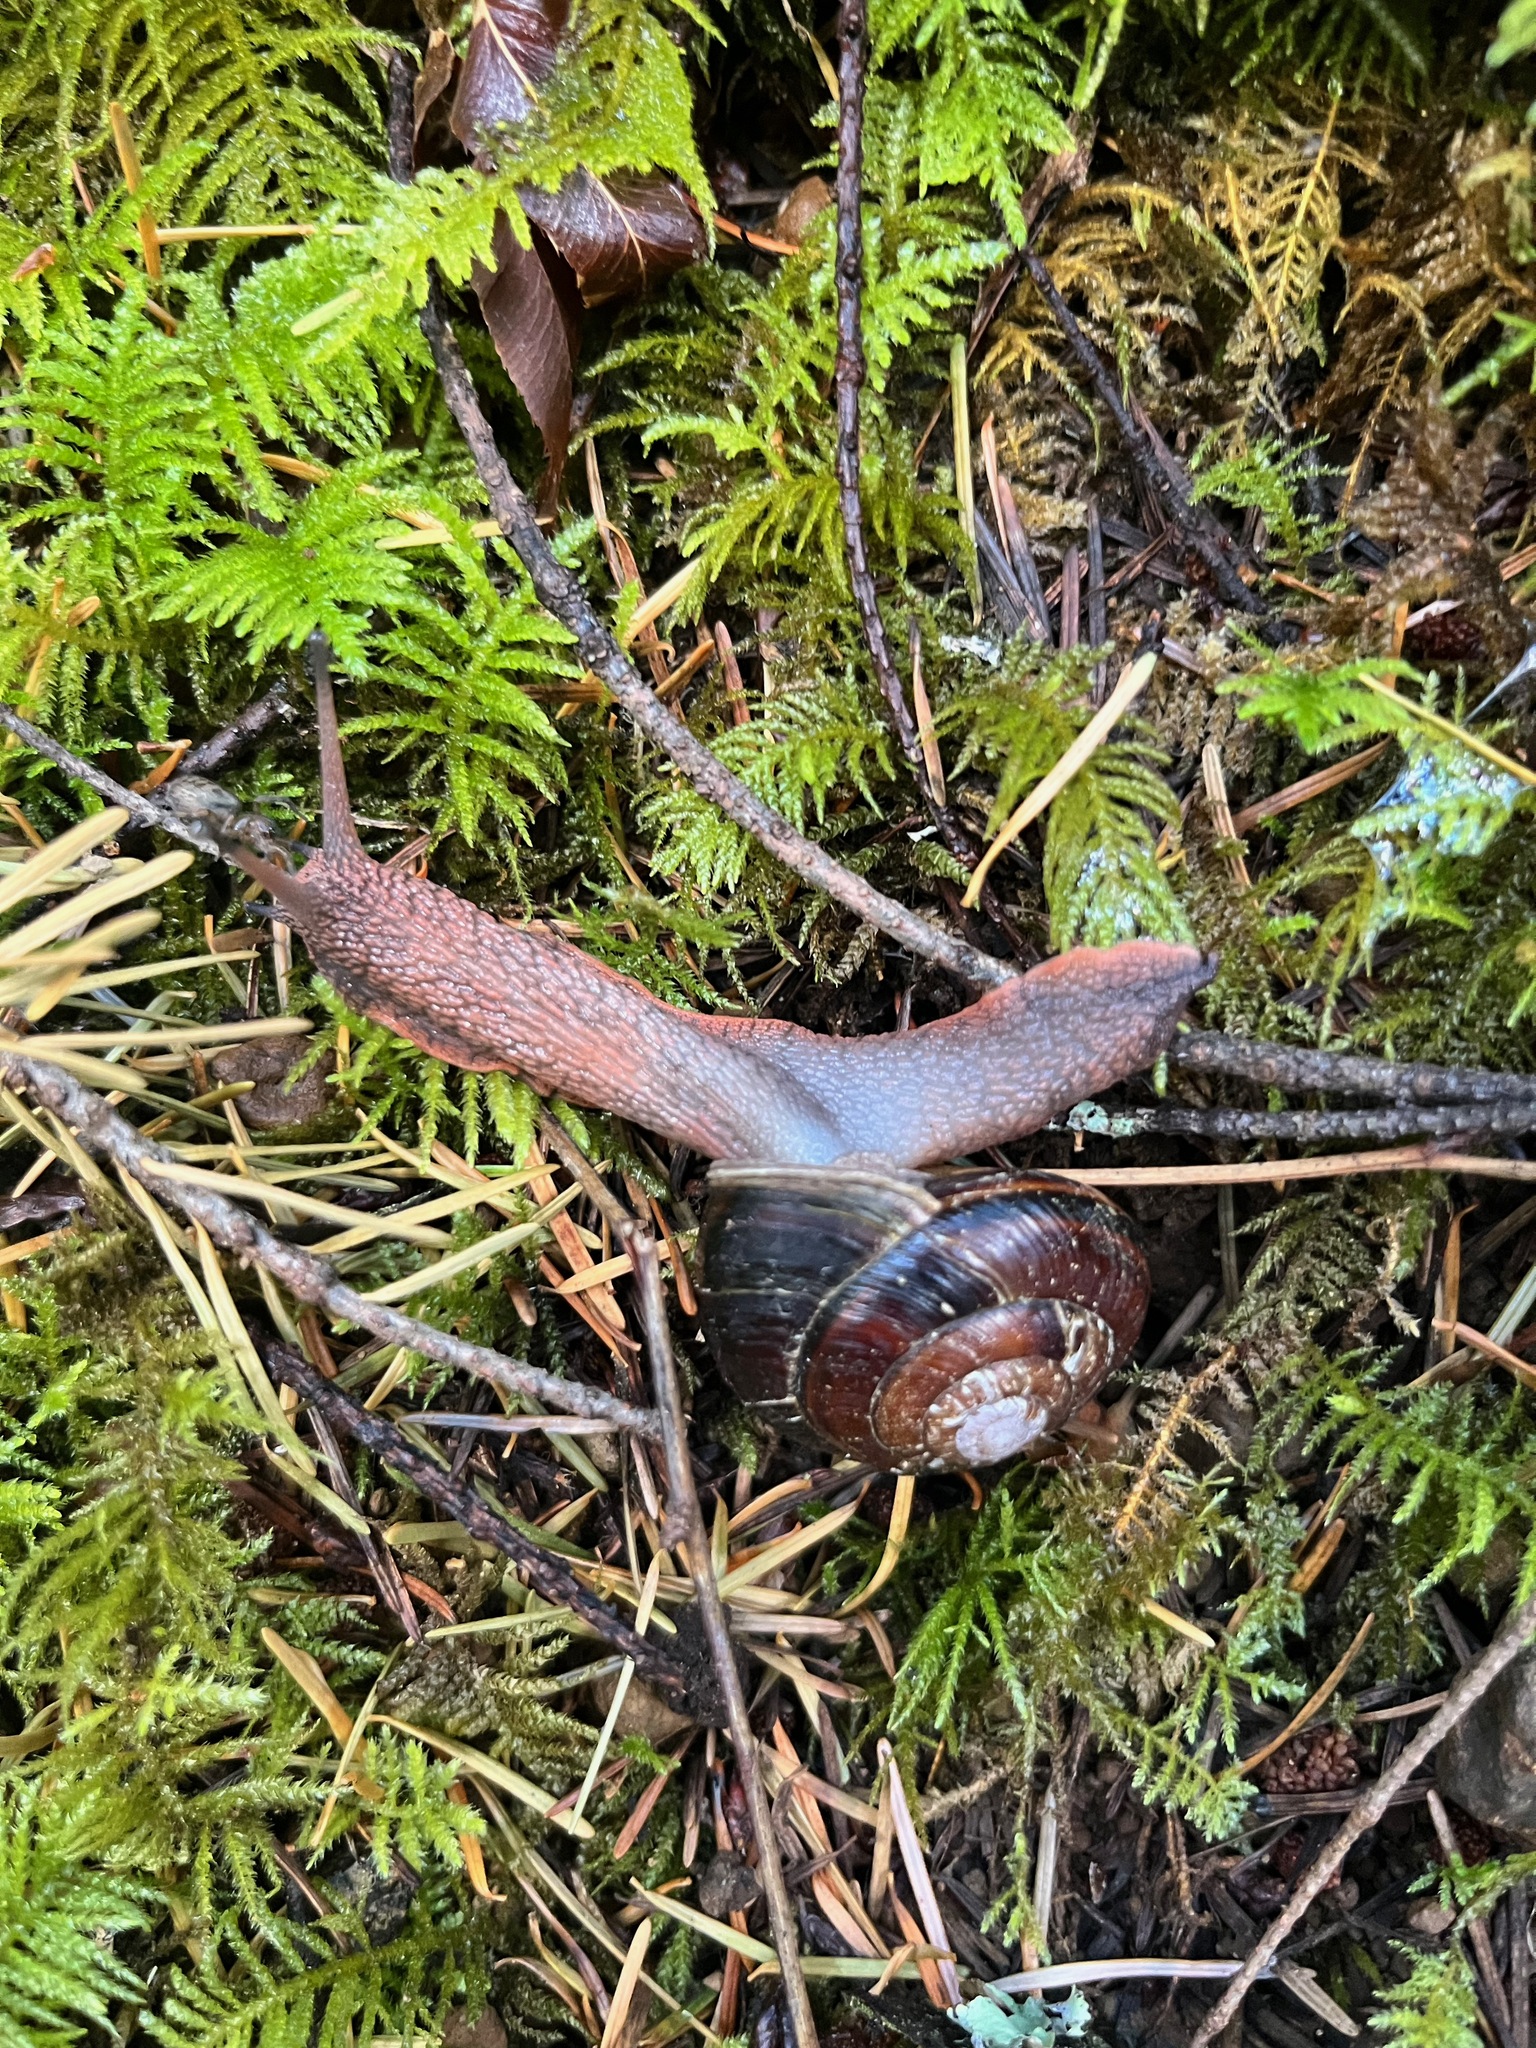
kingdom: Animalia
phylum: Mollusca
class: Gastropoda
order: Stylommatophora
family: Xanthonychidae
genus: Monadenia
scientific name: Monadenia fidelis
